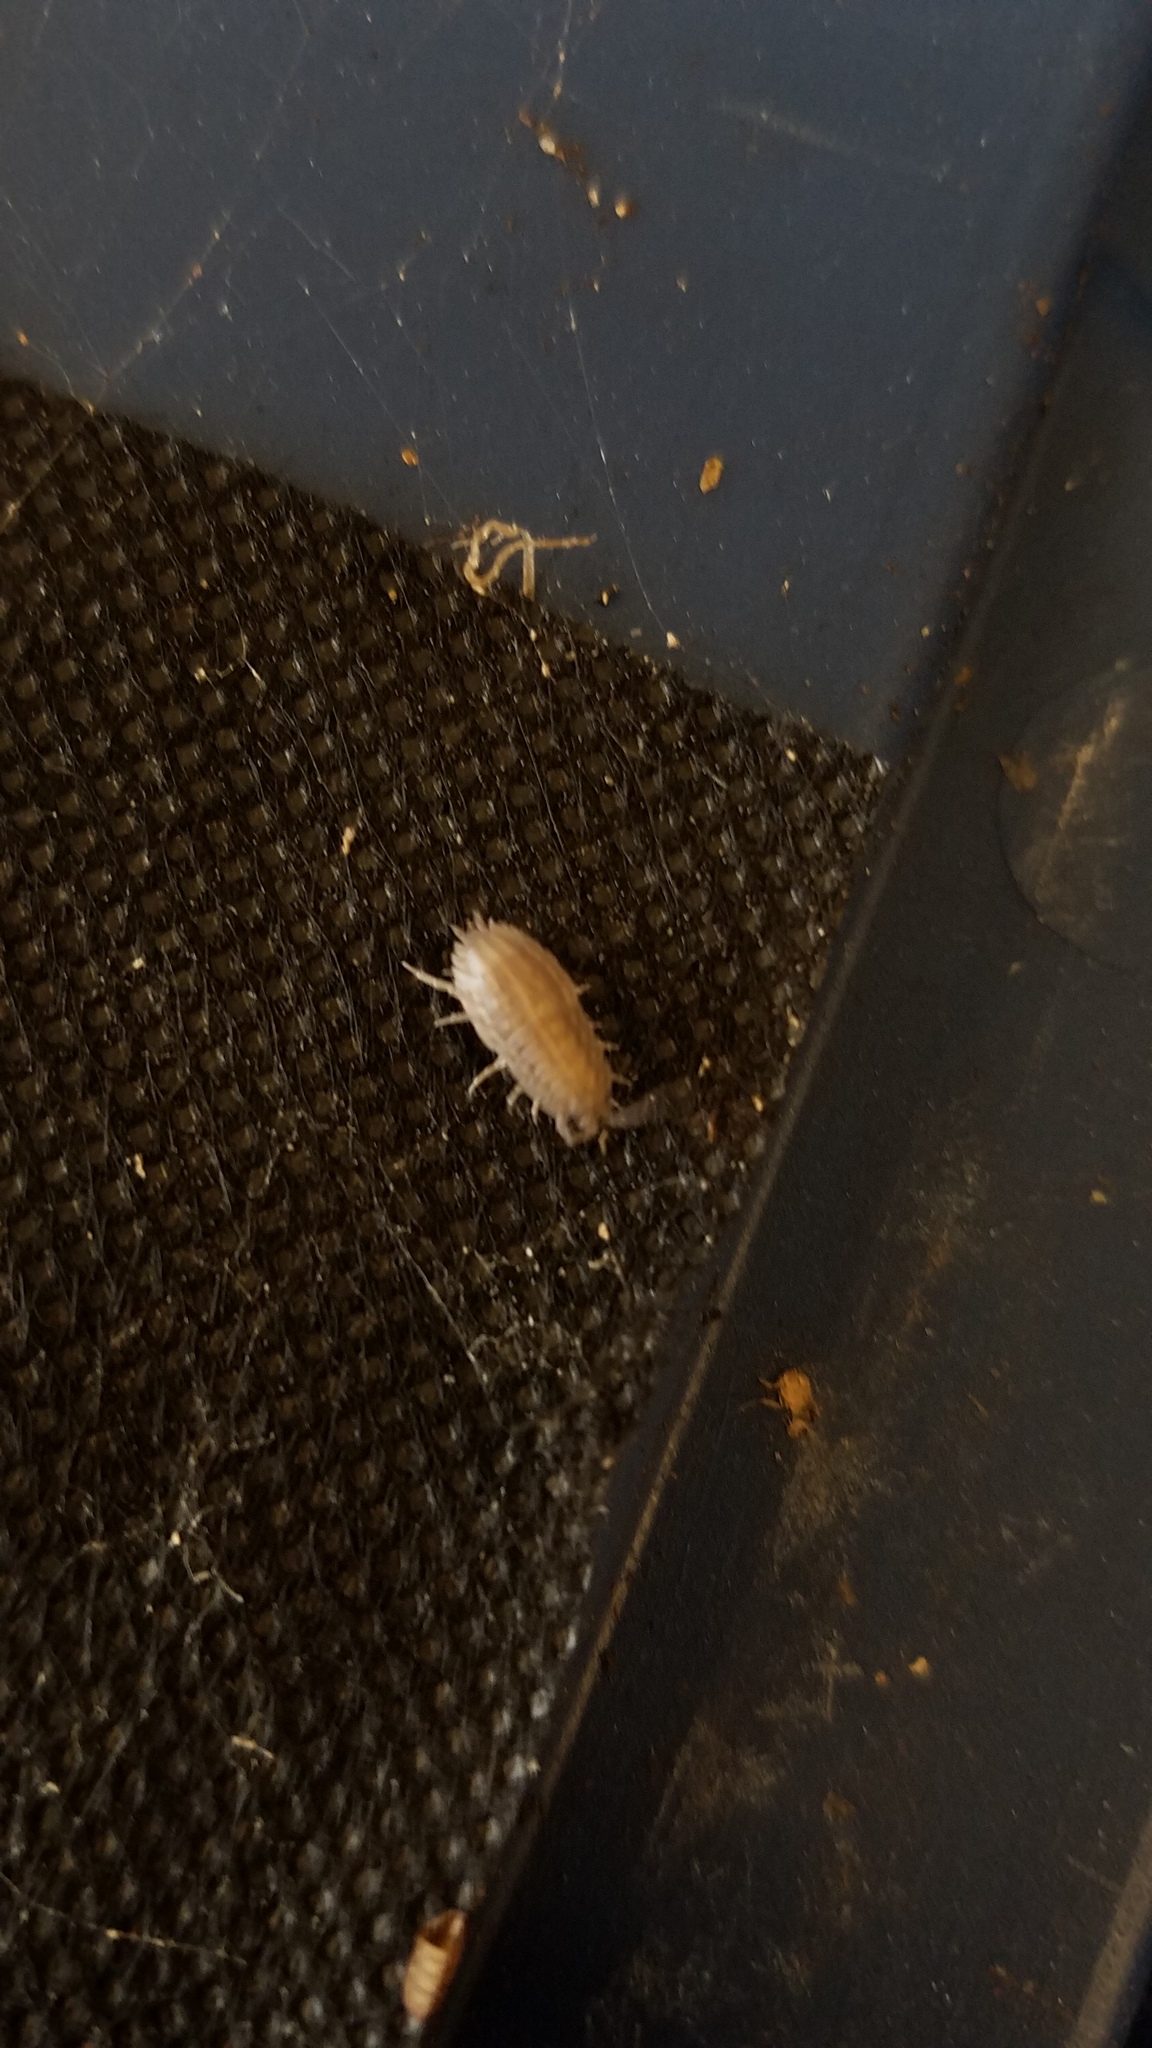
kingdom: Animalia
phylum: Arthropoda
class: Malacostraca
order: Isopoda
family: Trachelipodidae
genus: Trachelipus
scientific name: Trachelipus rathkii
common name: Isopod
